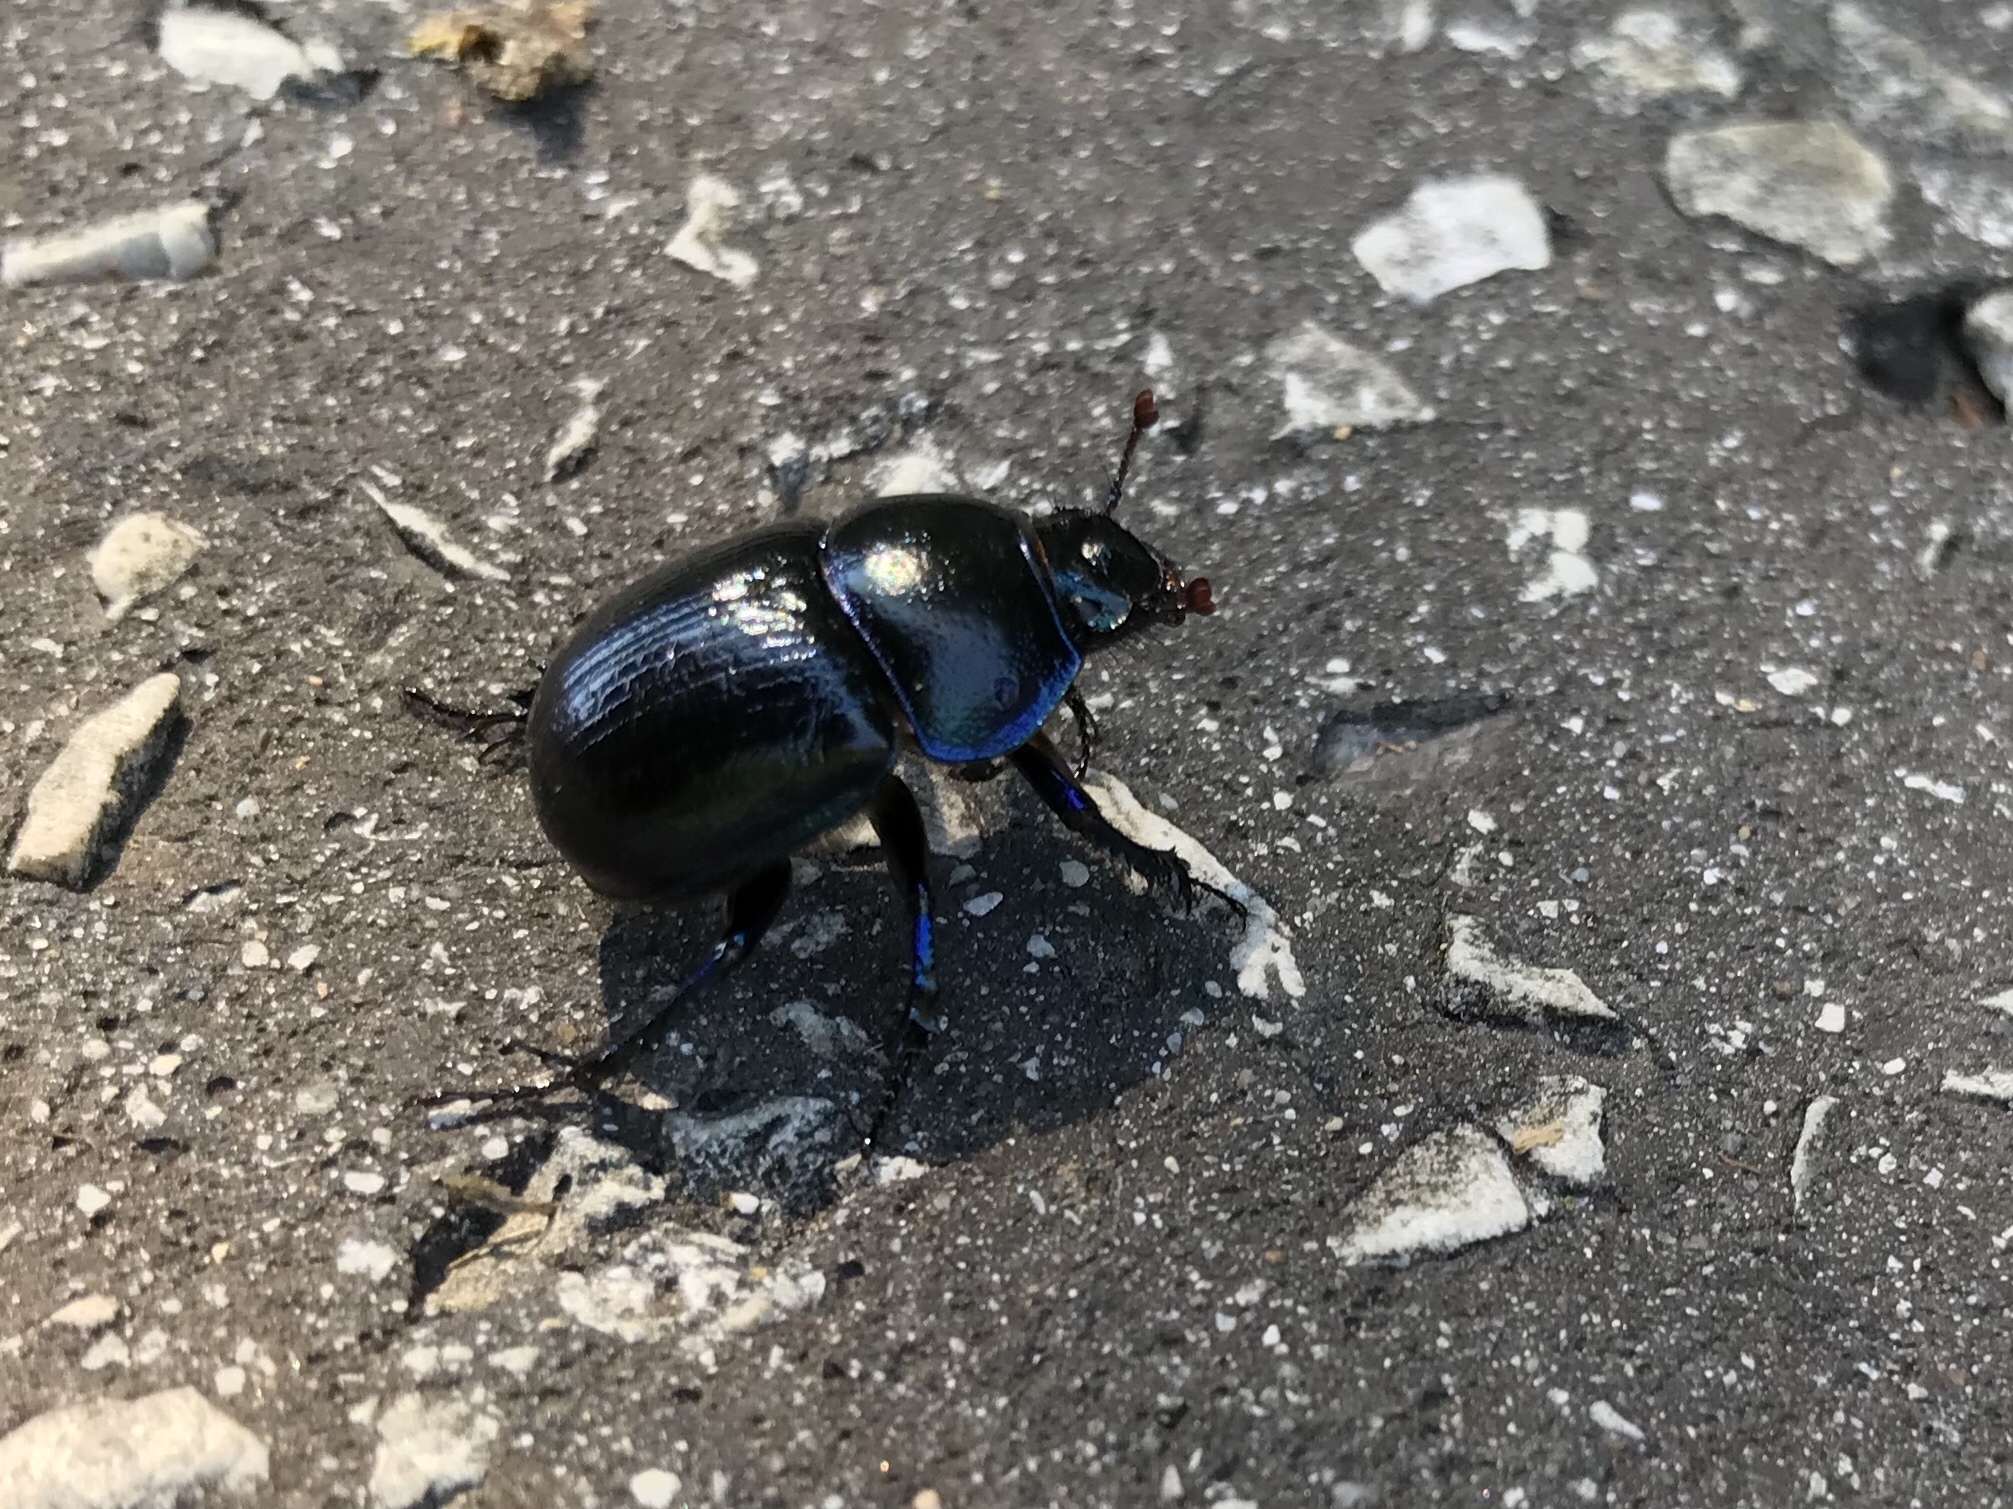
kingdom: Animalia
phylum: Arthropoda
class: Insecta
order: Coleoptera
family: Geotrupidae
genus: Anoplotrupes
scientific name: Anoplotrupes stercorosus
